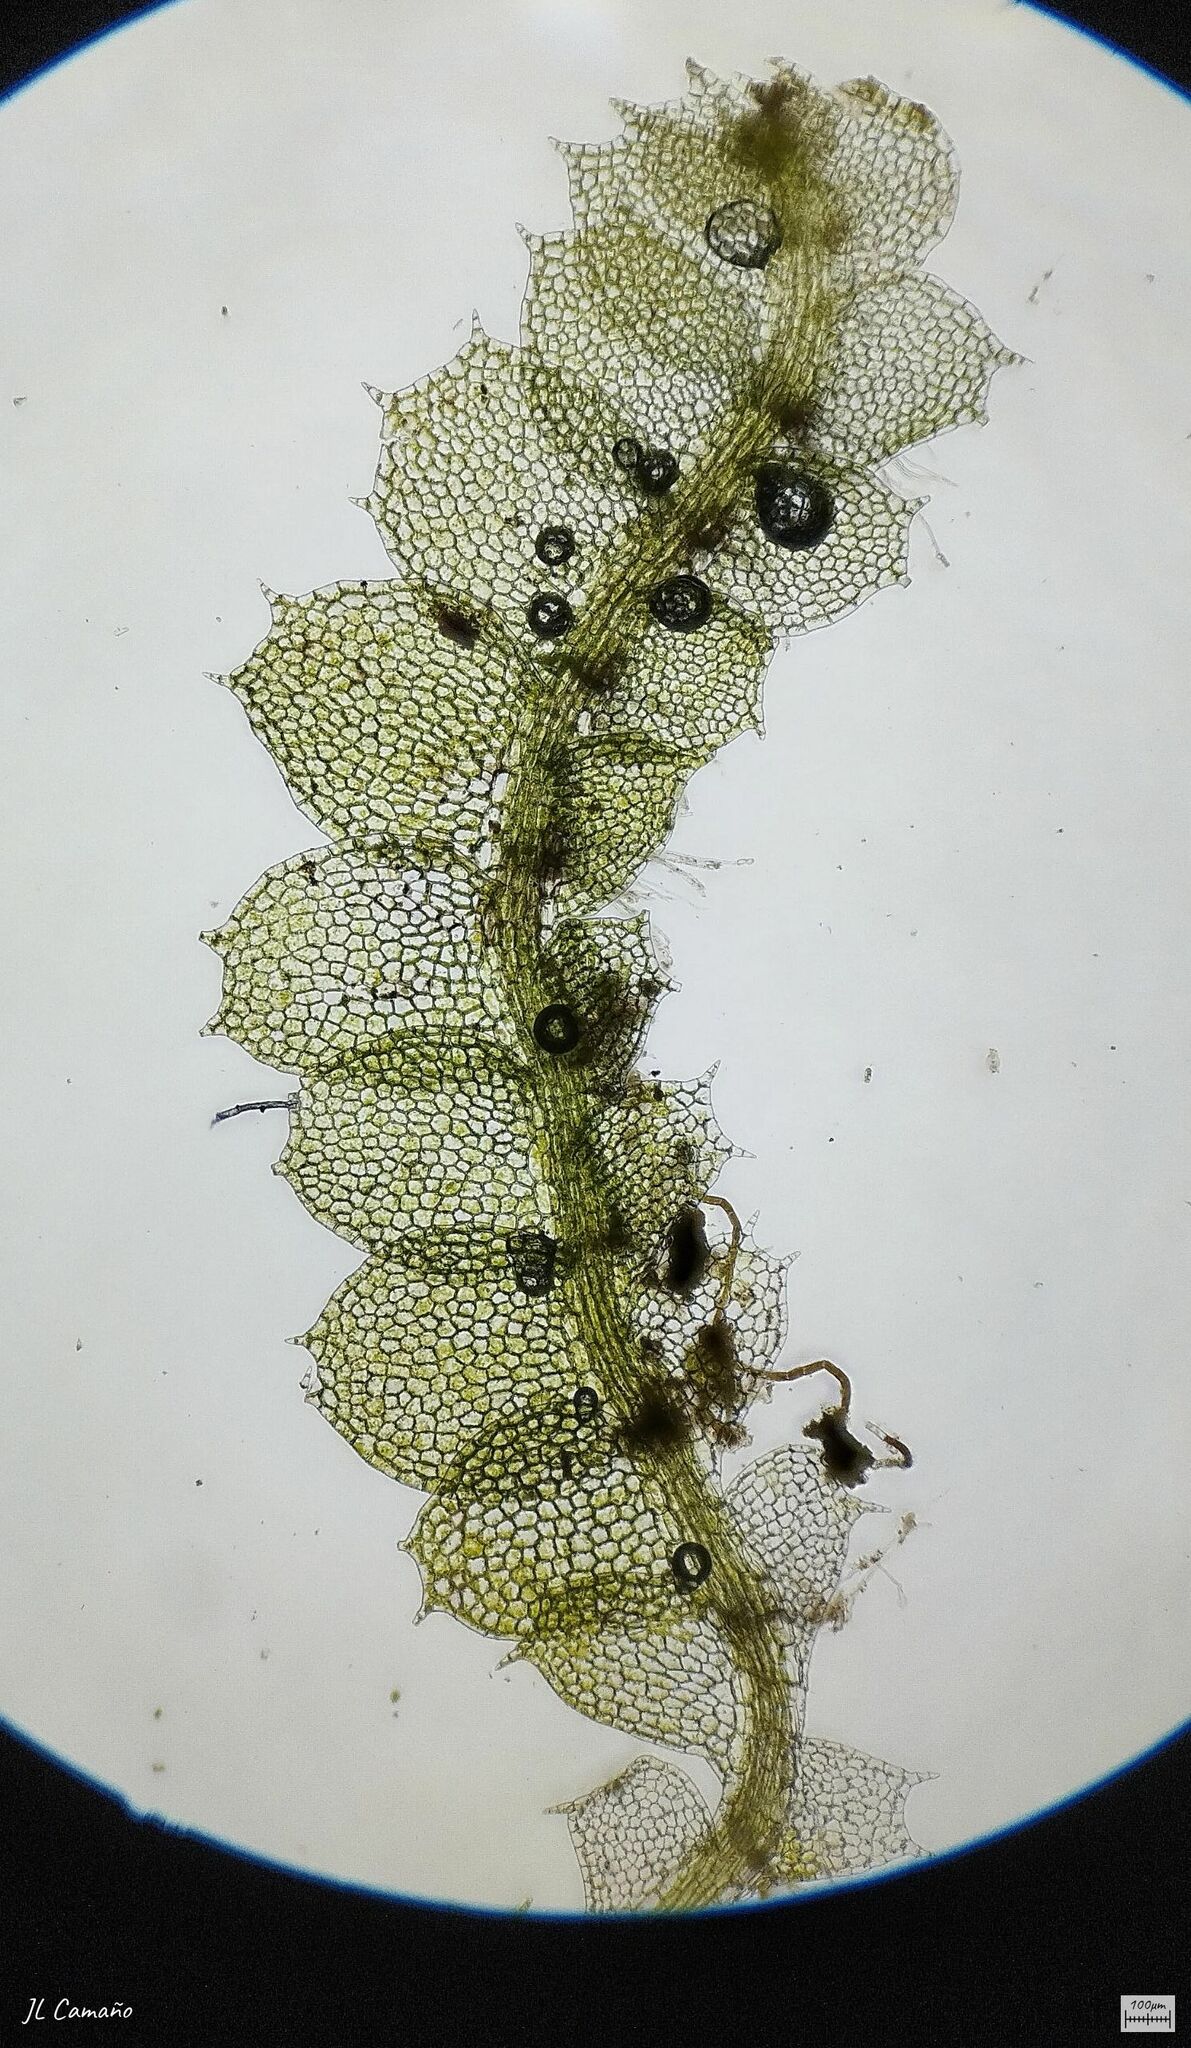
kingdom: Plantae
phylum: Marchantiophyta
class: Jungermanniopsida
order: Jungermanniales
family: Calypogeiaceae
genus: Asperifolia
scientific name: Asperifolia arguta
